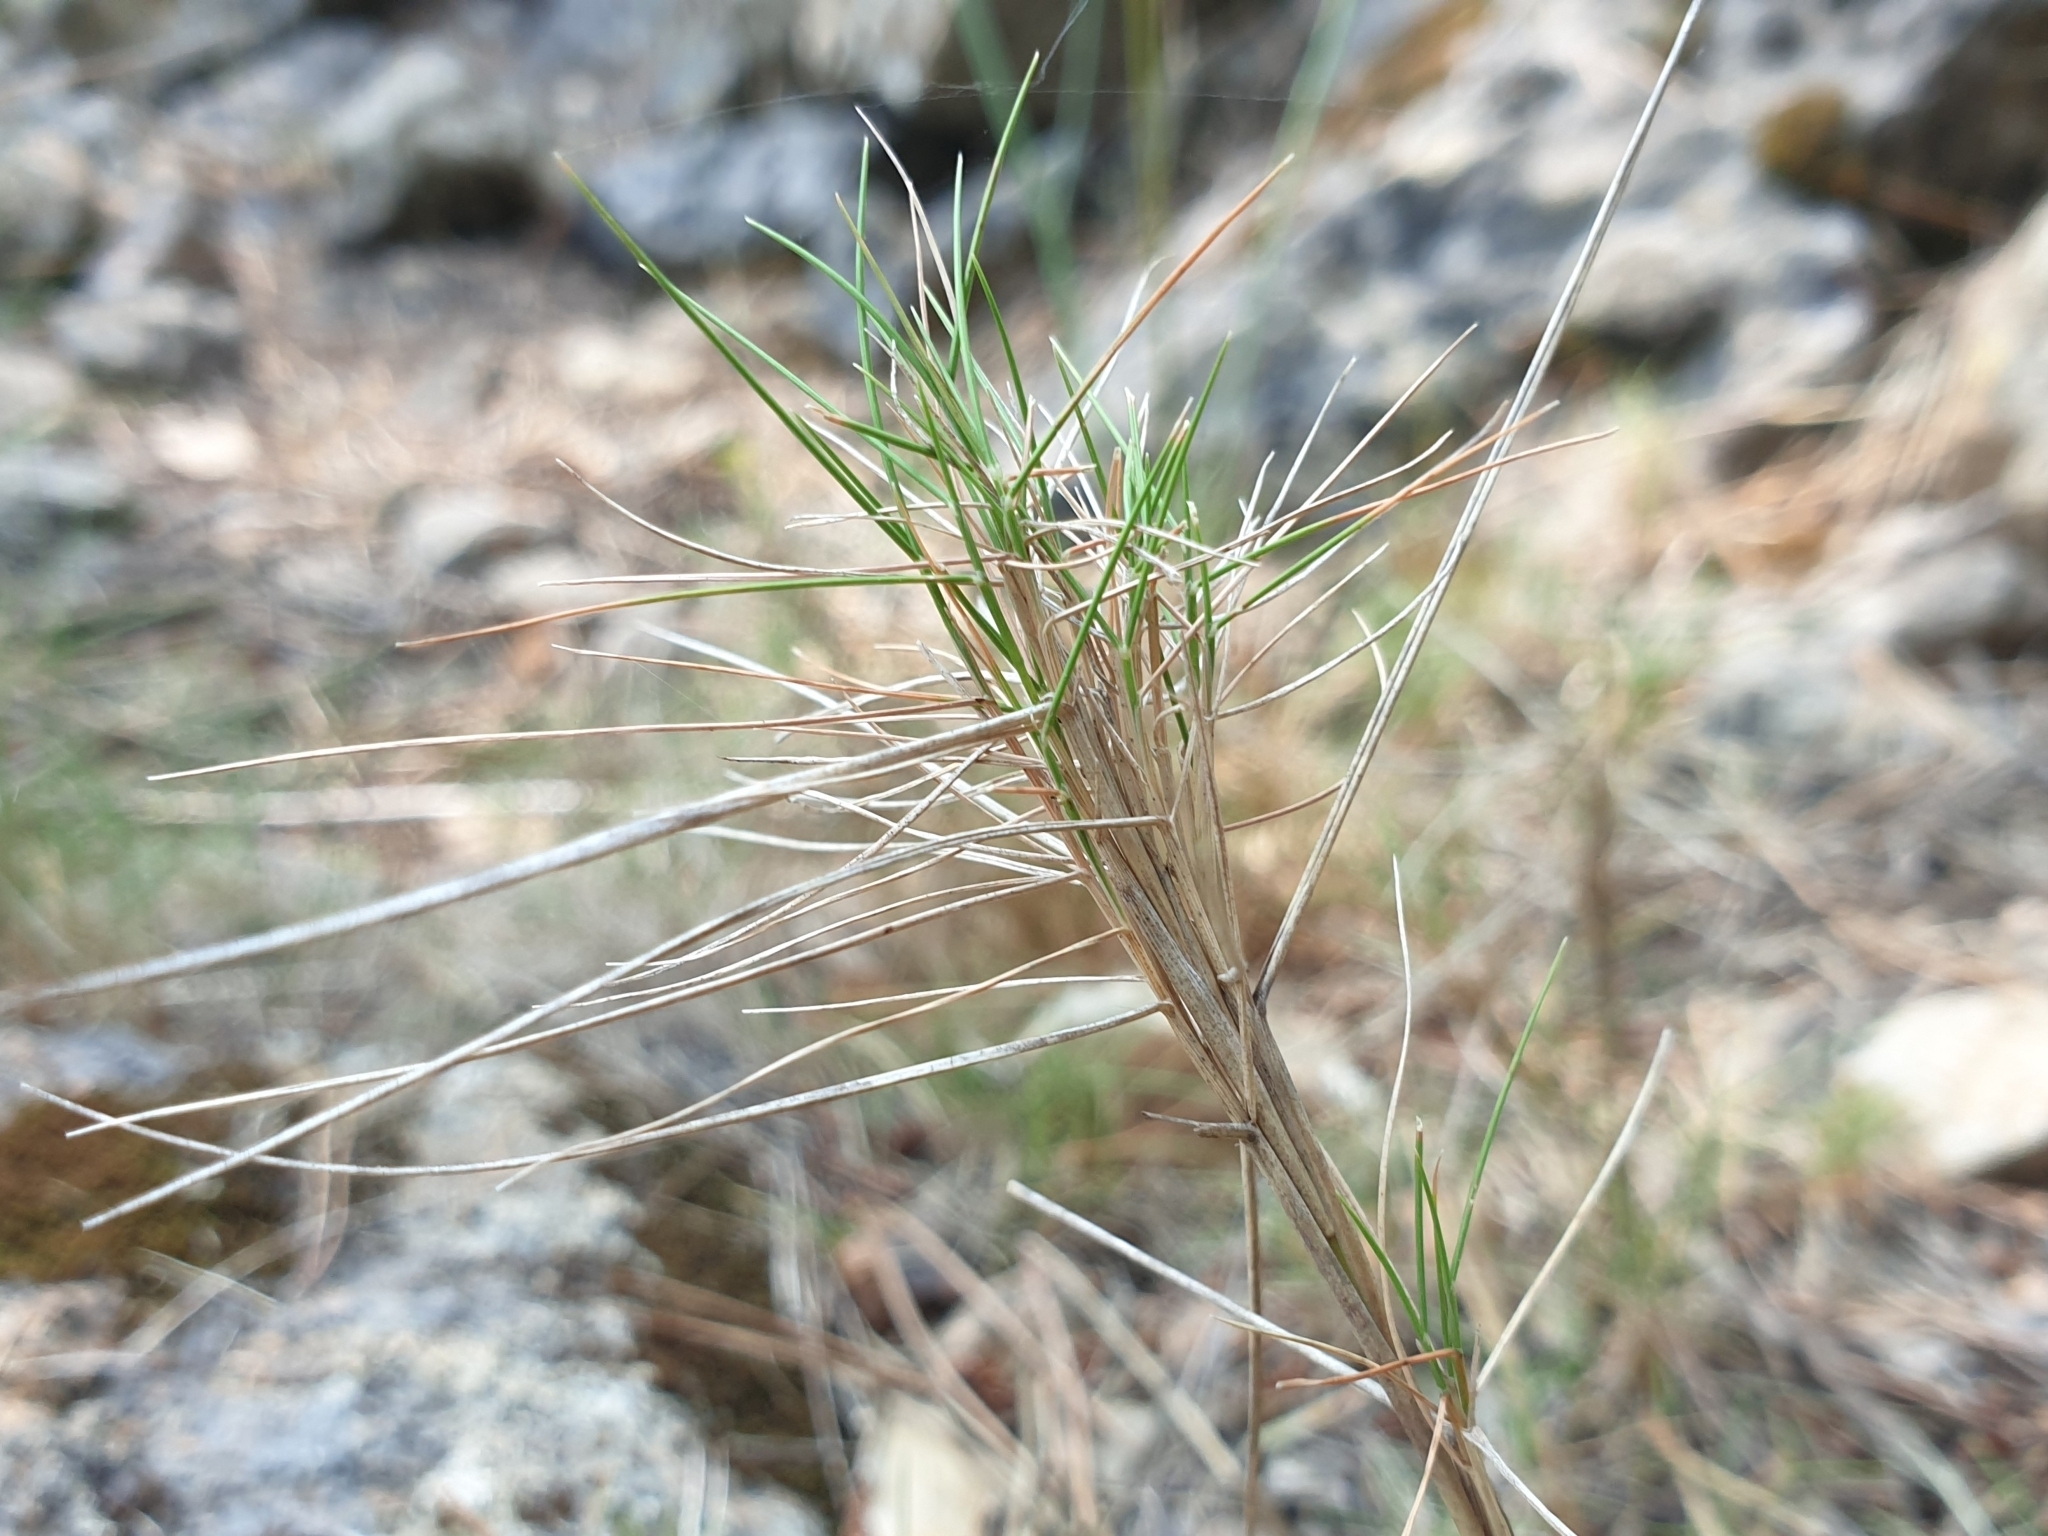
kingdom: Plantae
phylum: Tracheophyta
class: Liliopsida
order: Poales
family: Poaceae
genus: Brachypodium
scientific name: Brachypodium retusum
